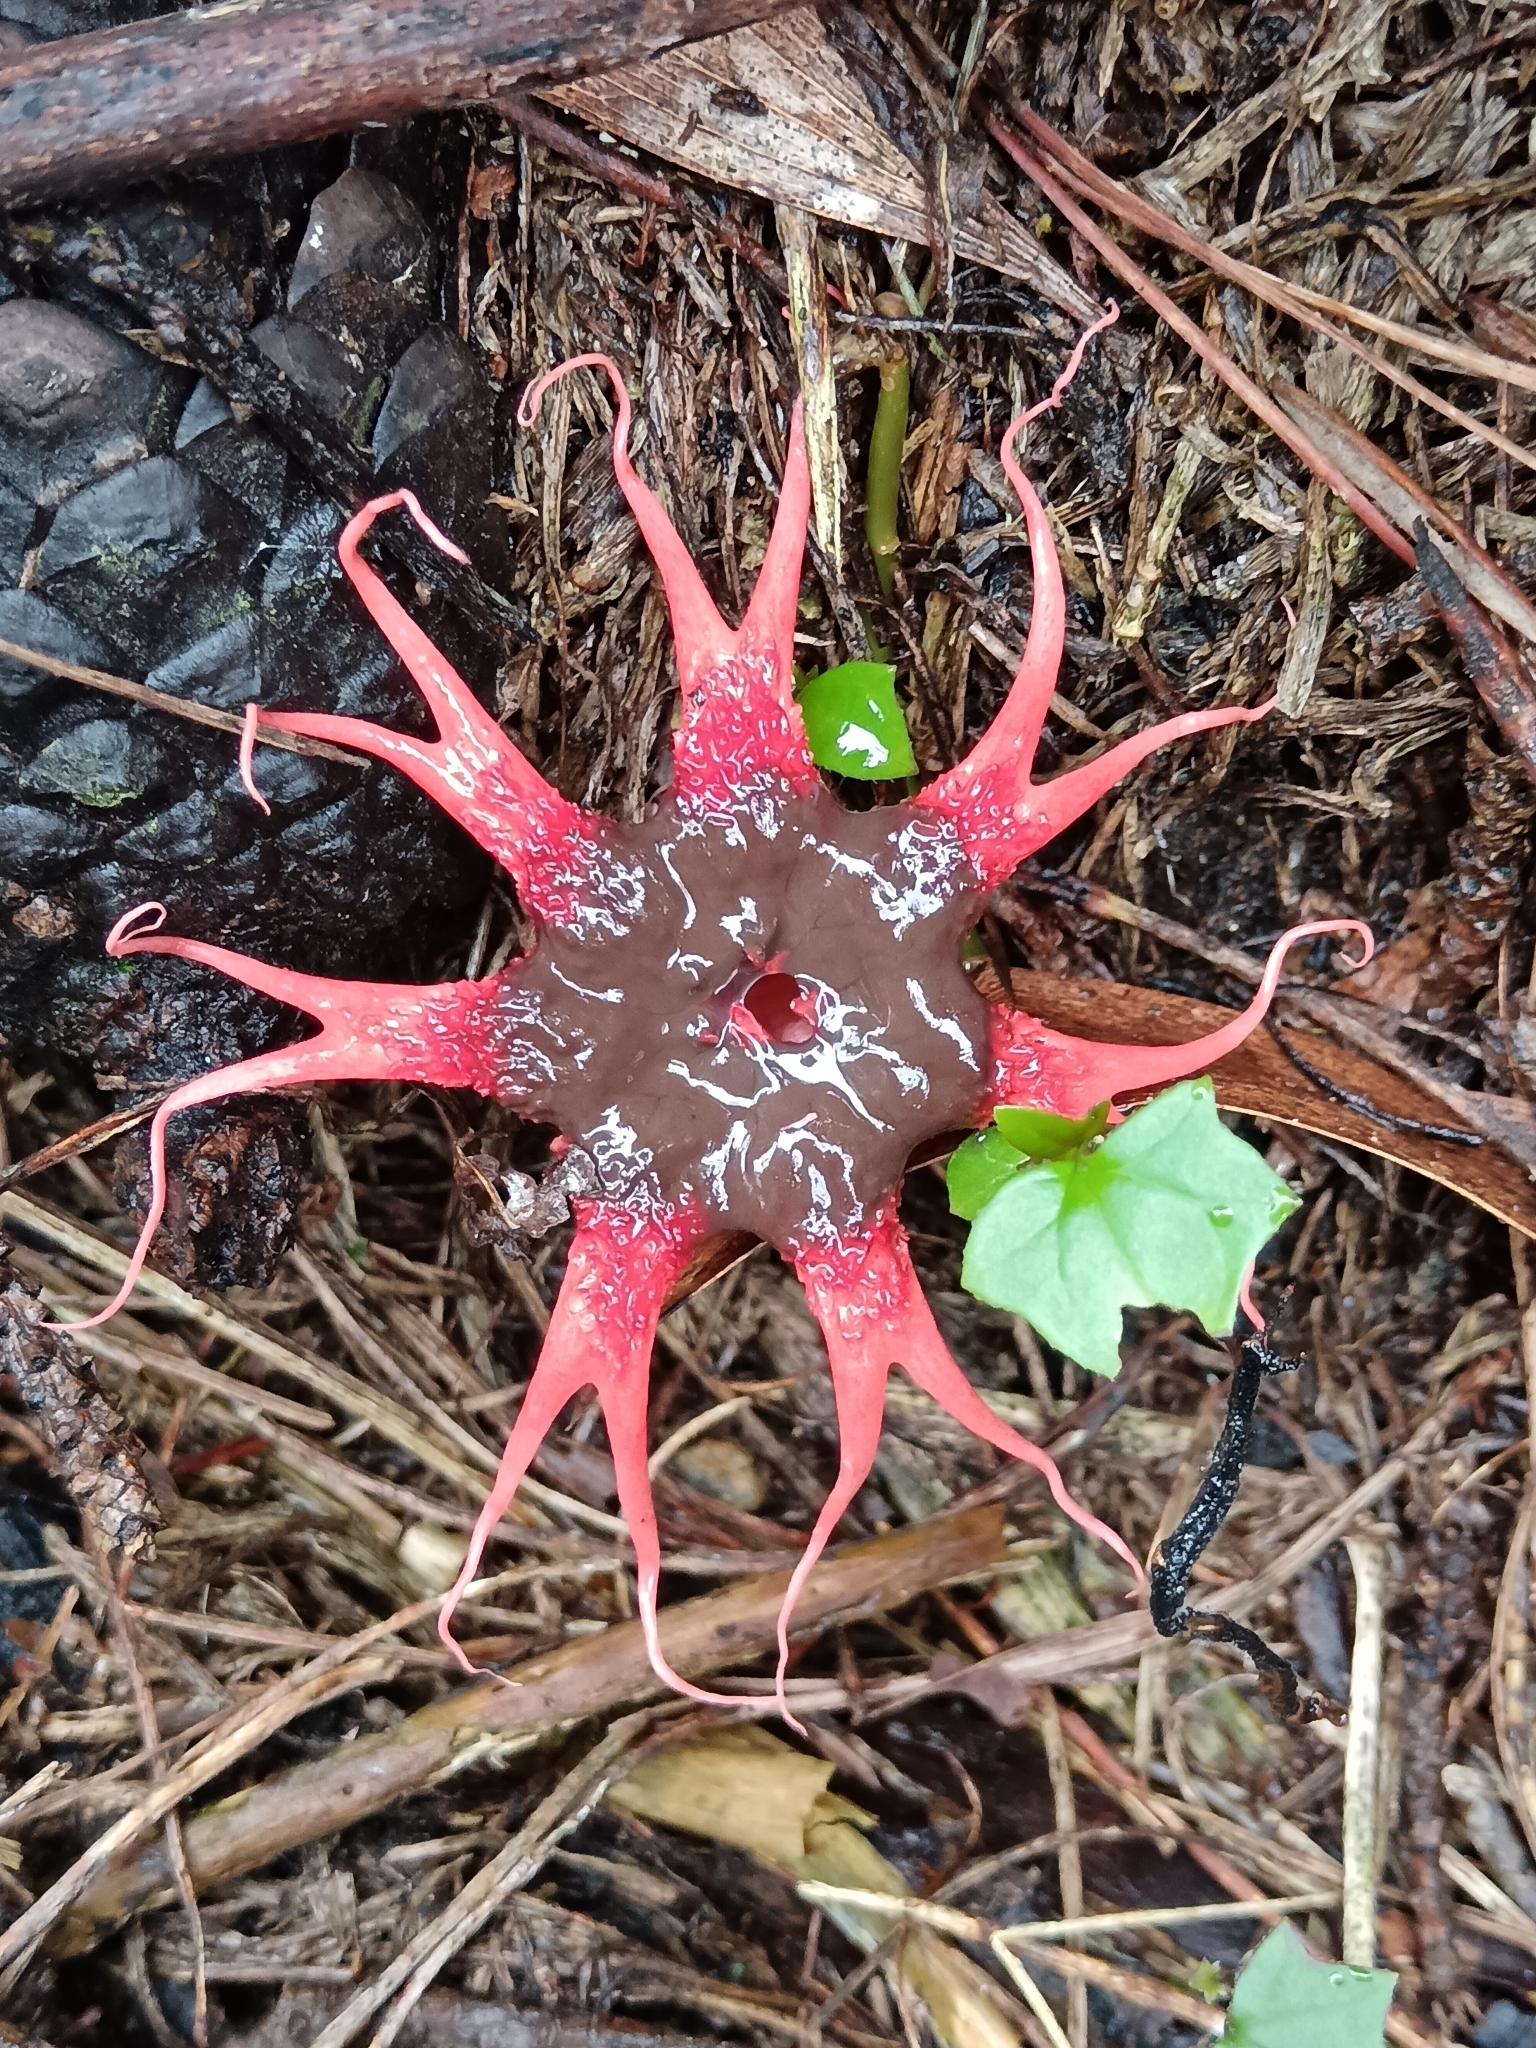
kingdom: Fungi
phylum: Basidiomycota
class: Agaricomycetes
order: Phallales
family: Phallaceae
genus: Aseroe
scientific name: Aseroe rubra
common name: Starfish fungus
